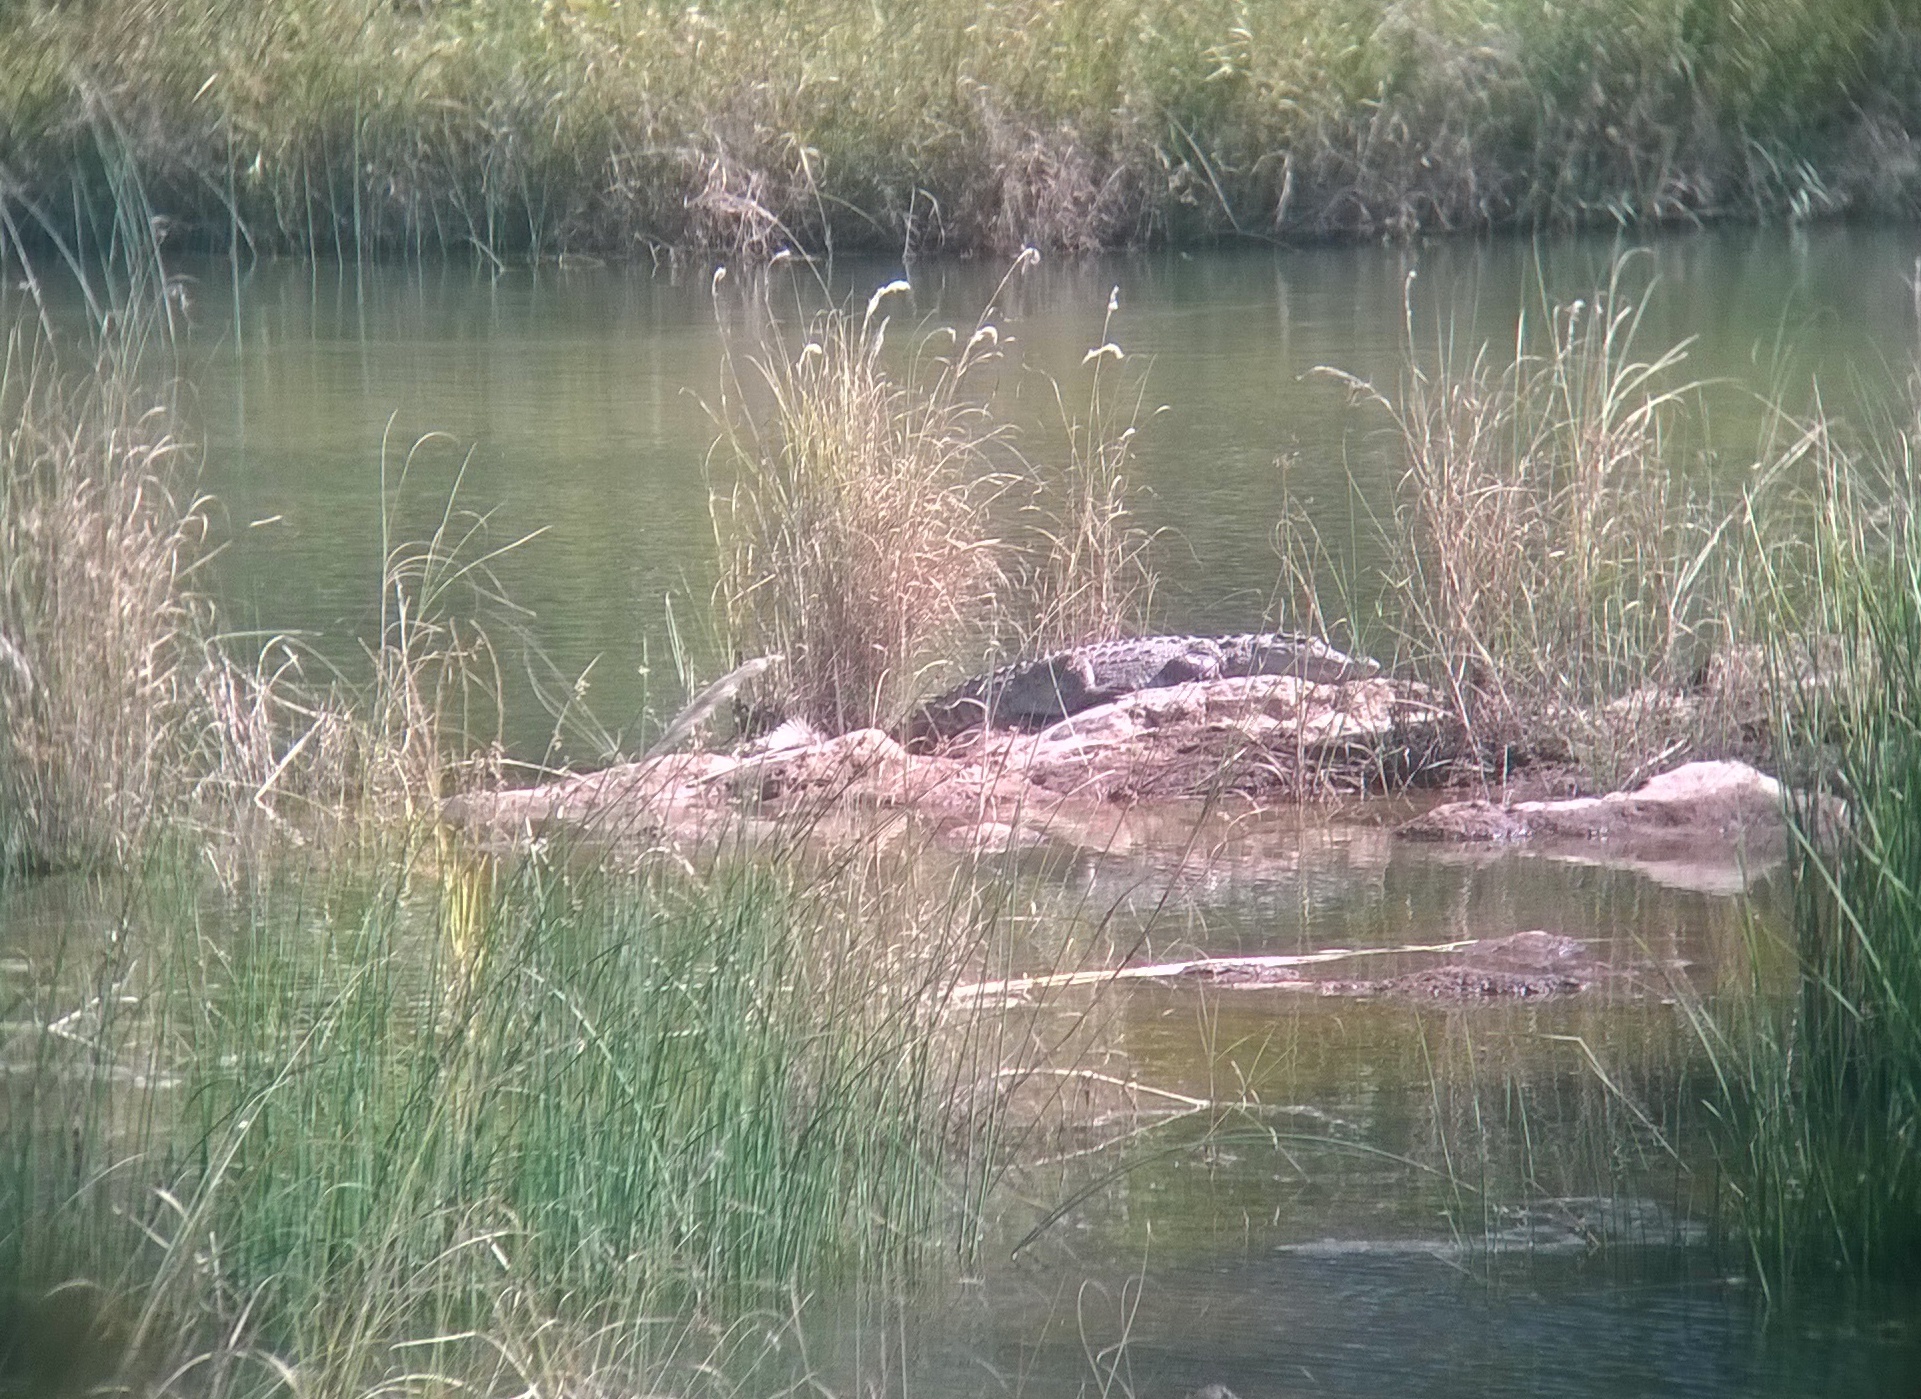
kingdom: Animalia
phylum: Chordata
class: Crocodylia
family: Crocodylidae
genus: Crocodylus
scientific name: Crocodylus palustris
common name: Mugger crocodile
